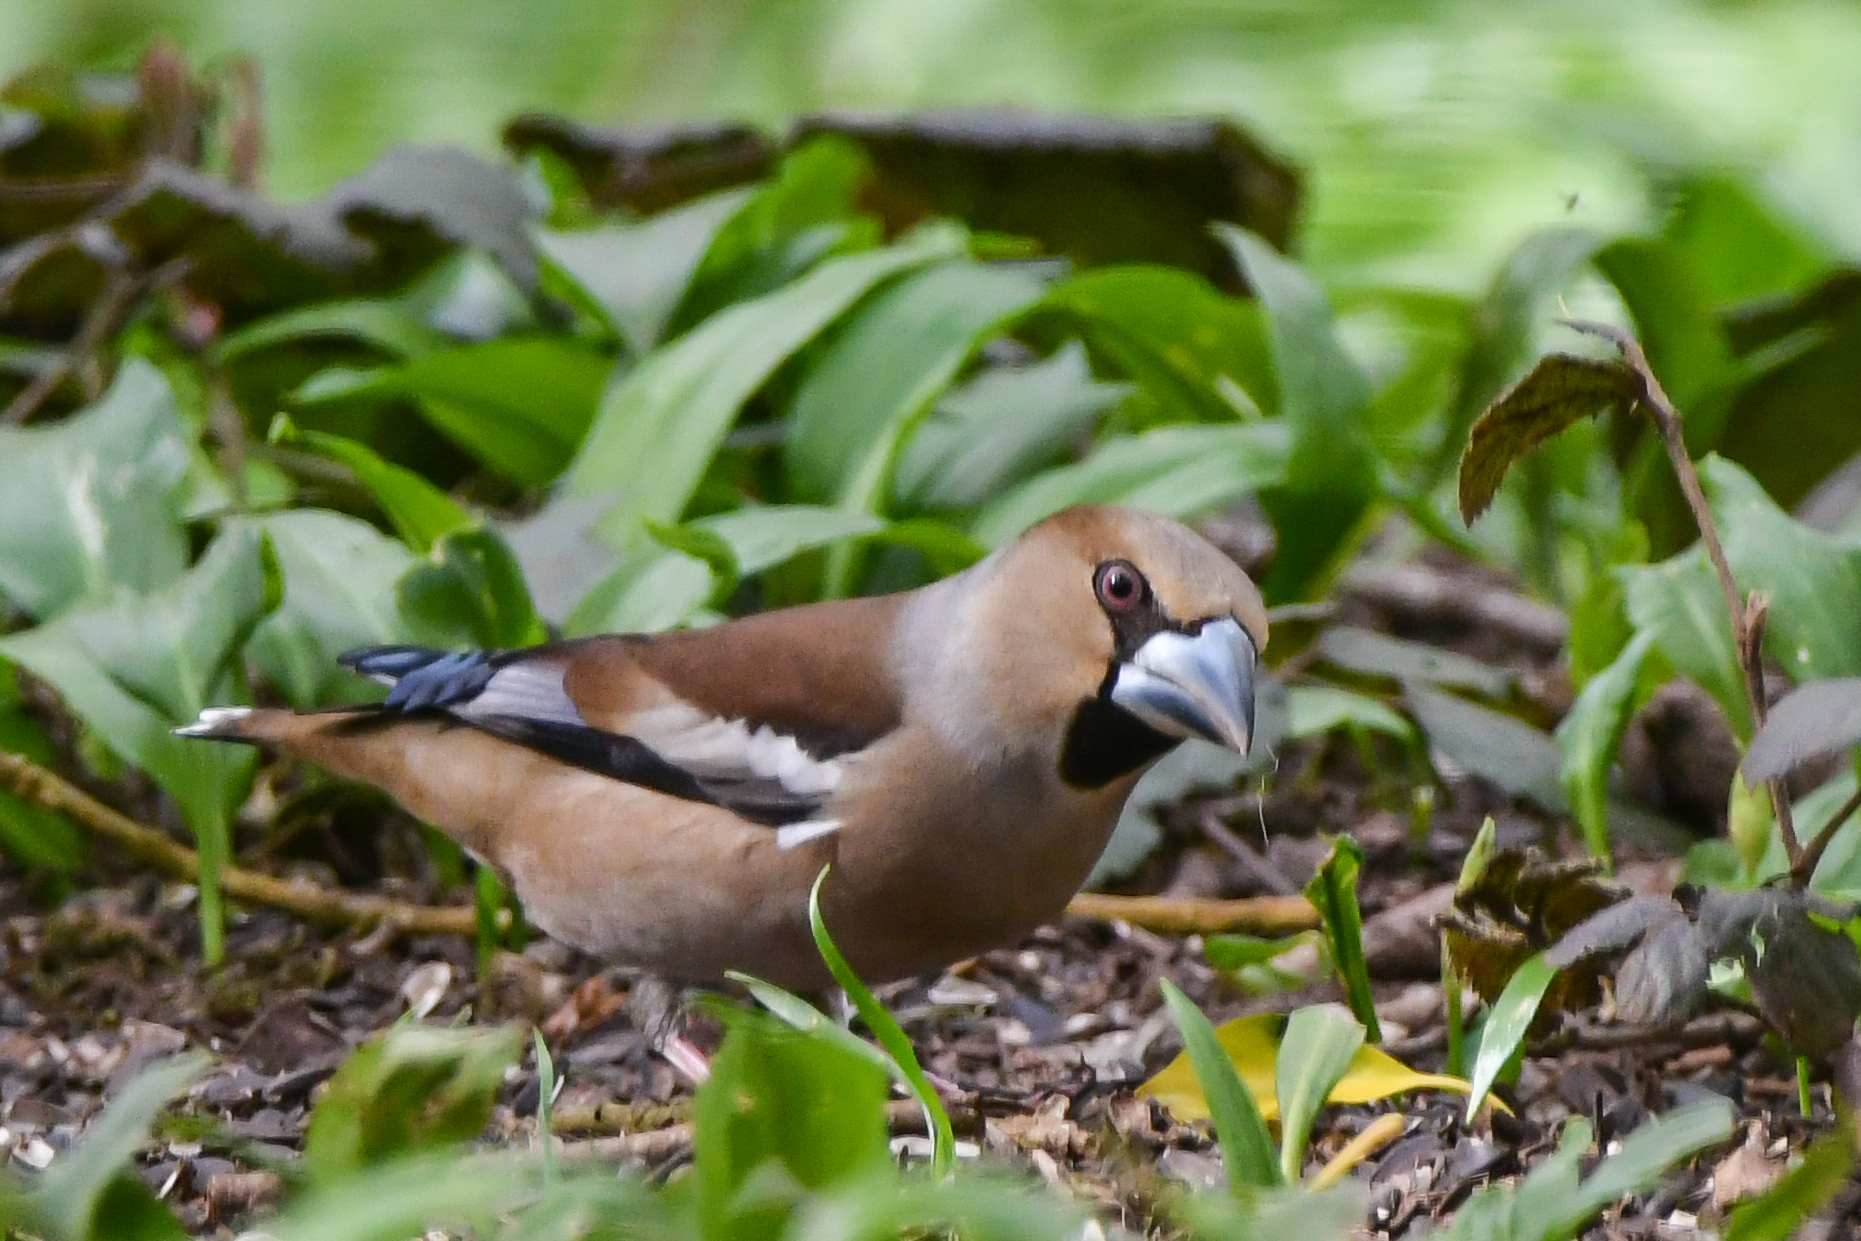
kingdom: Animalia
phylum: Chordata
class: Aves
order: Passeriformes
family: Fringillidae
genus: Coccothraustes
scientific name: Coccothraustes coccothraustes
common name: Hawfinch
